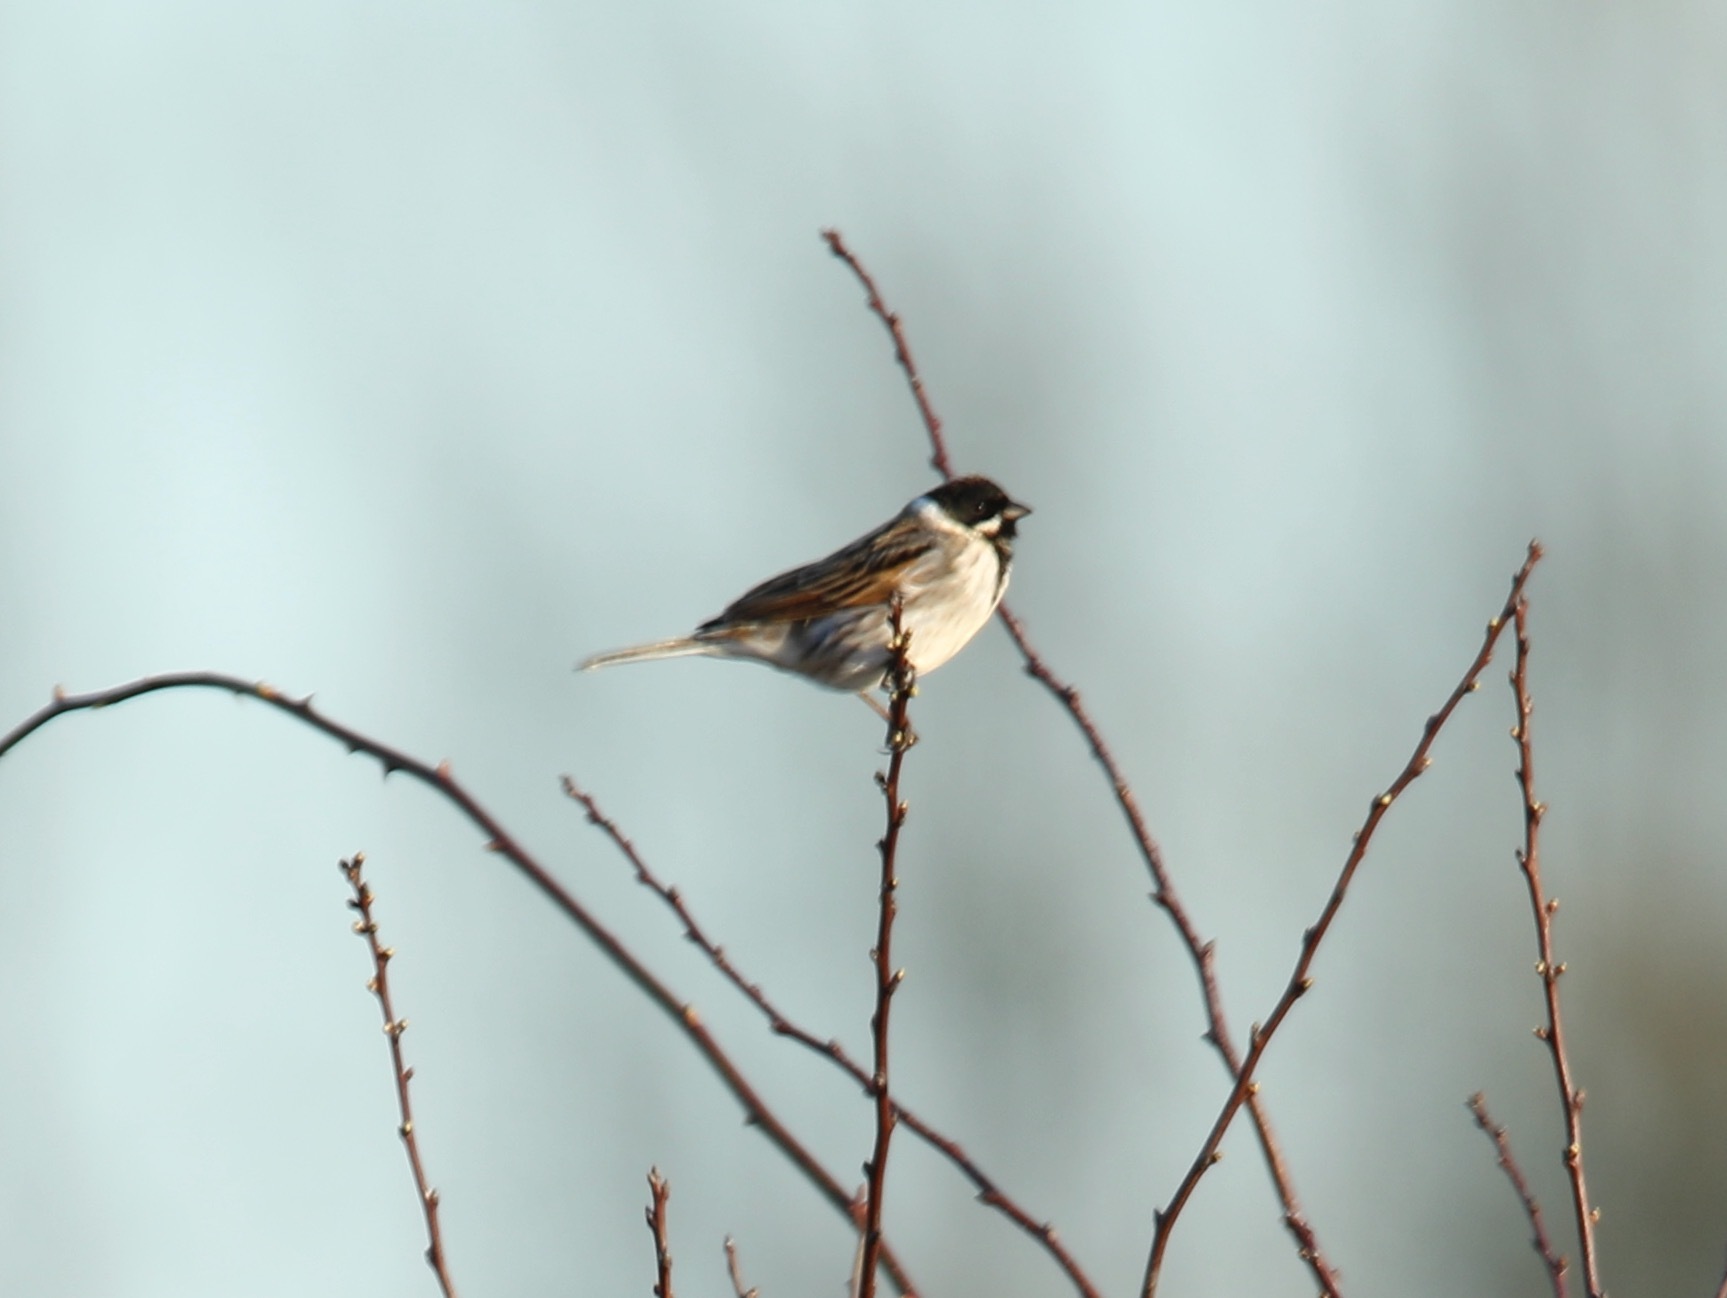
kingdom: Animalia
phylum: Chordata
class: Aves
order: Passeriformes
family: Emberizidae
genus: Emberiza
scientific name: Emberiza schoeniclus
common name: Reed bunting
